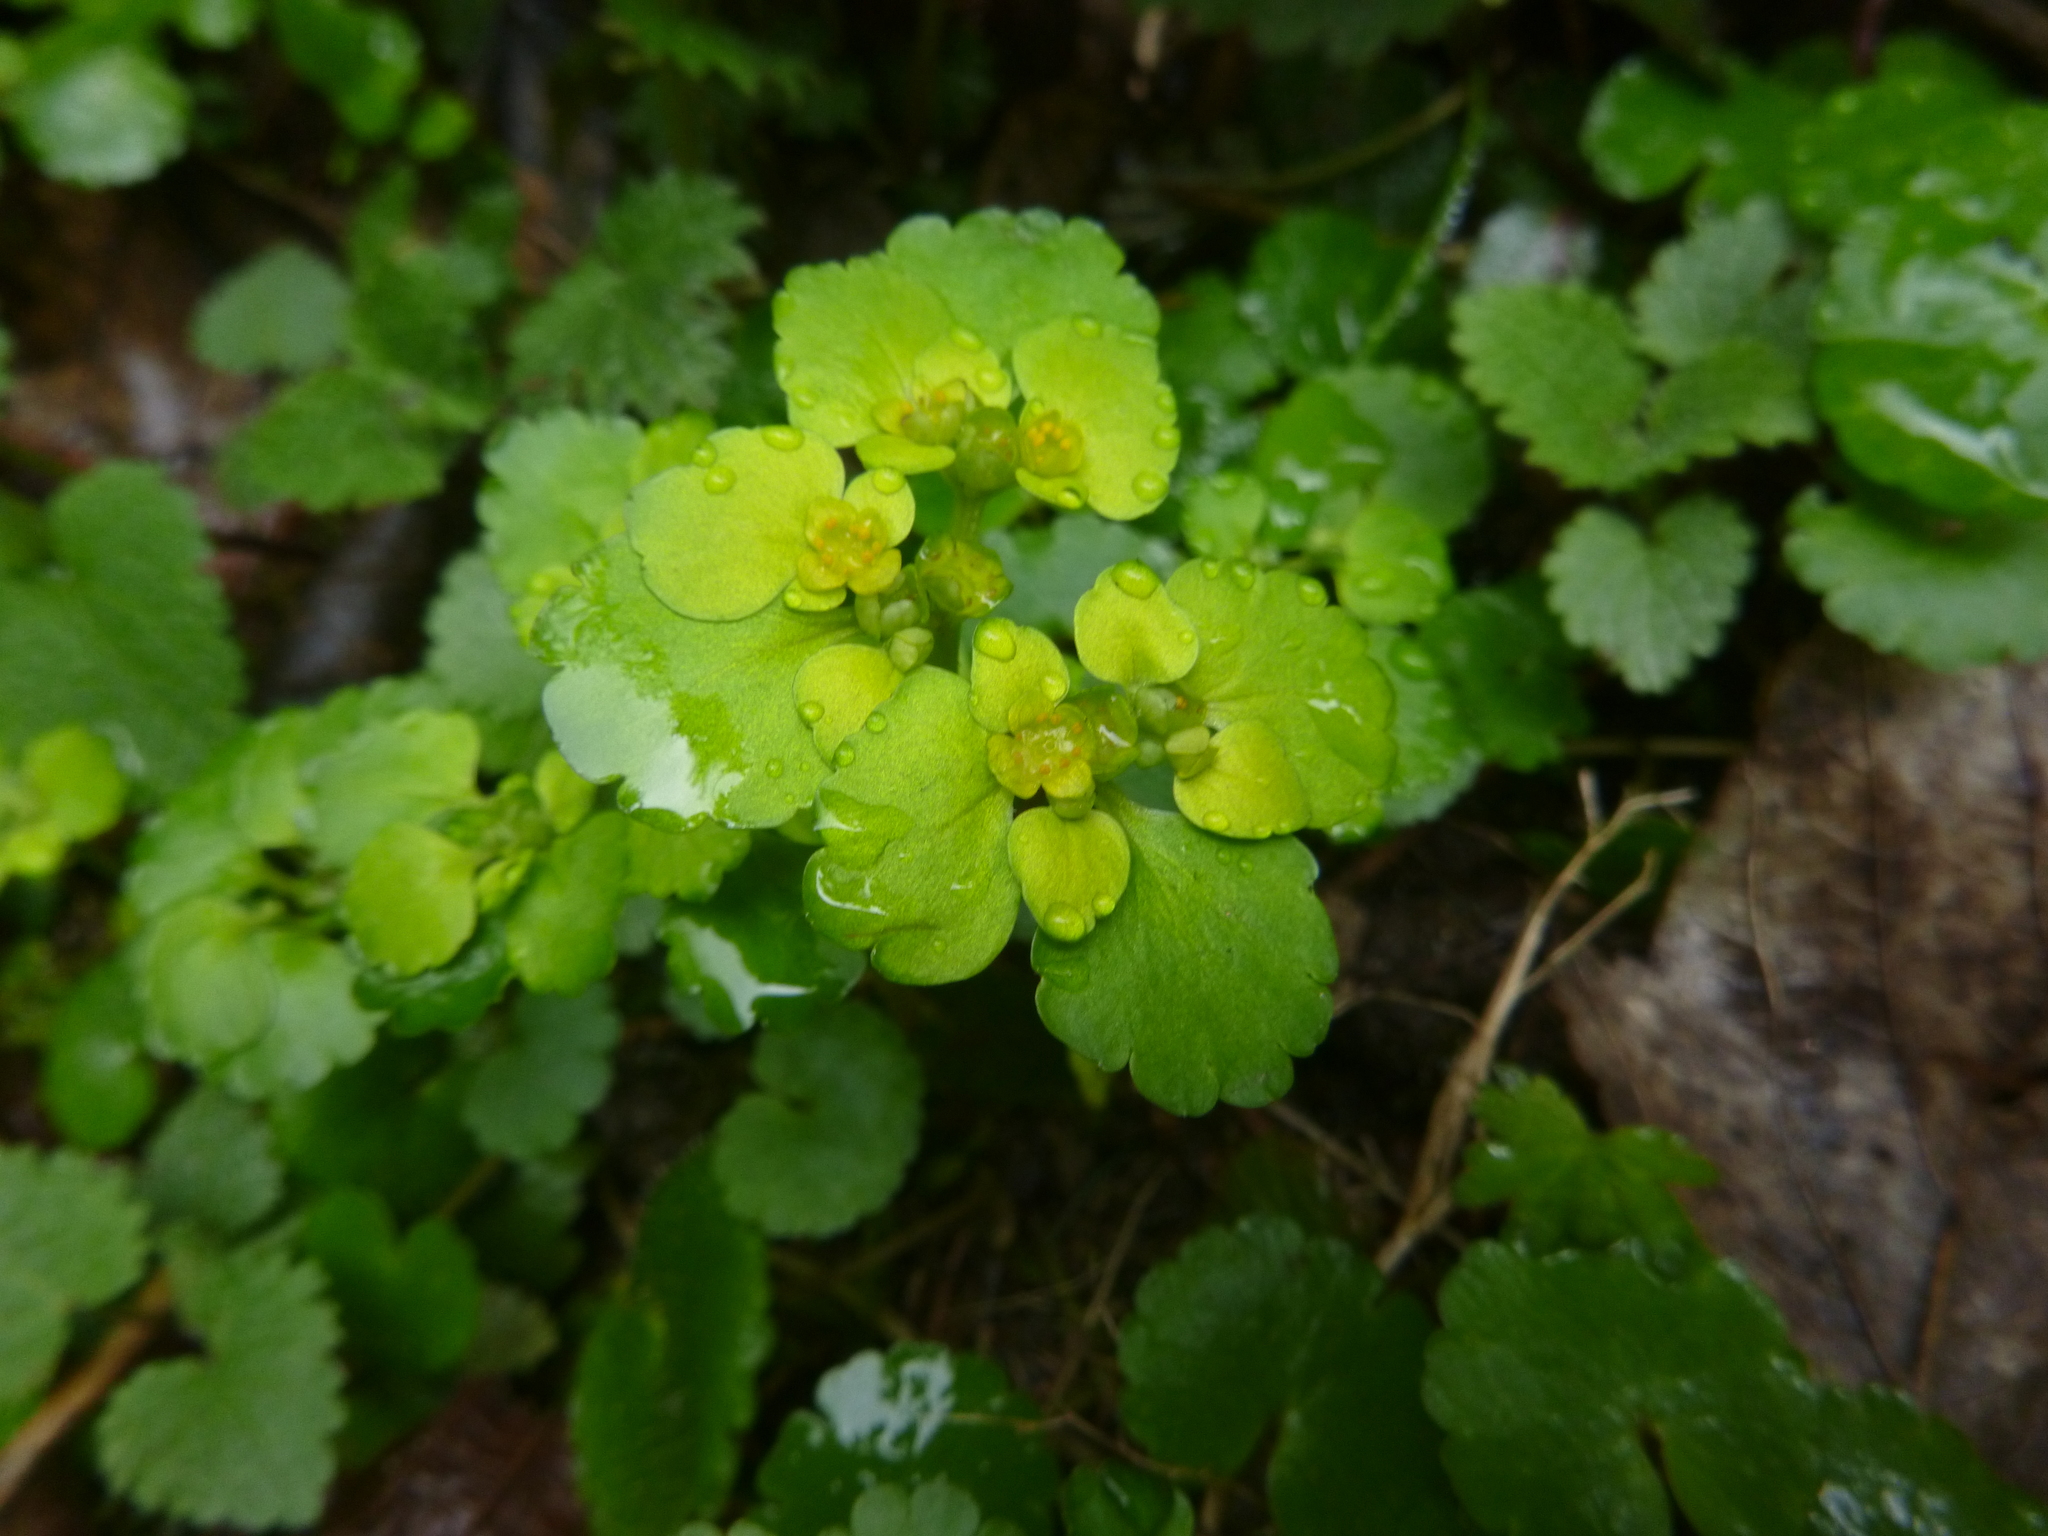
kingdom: Plantae
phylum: Tracheophyta
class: Magnoliopsida
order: Saxifragales
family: Saxifragaceae
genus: Chrysosplenium
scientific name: Chrysosplenium alternifolium
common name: Alternate-leaved golden-saxifrage
